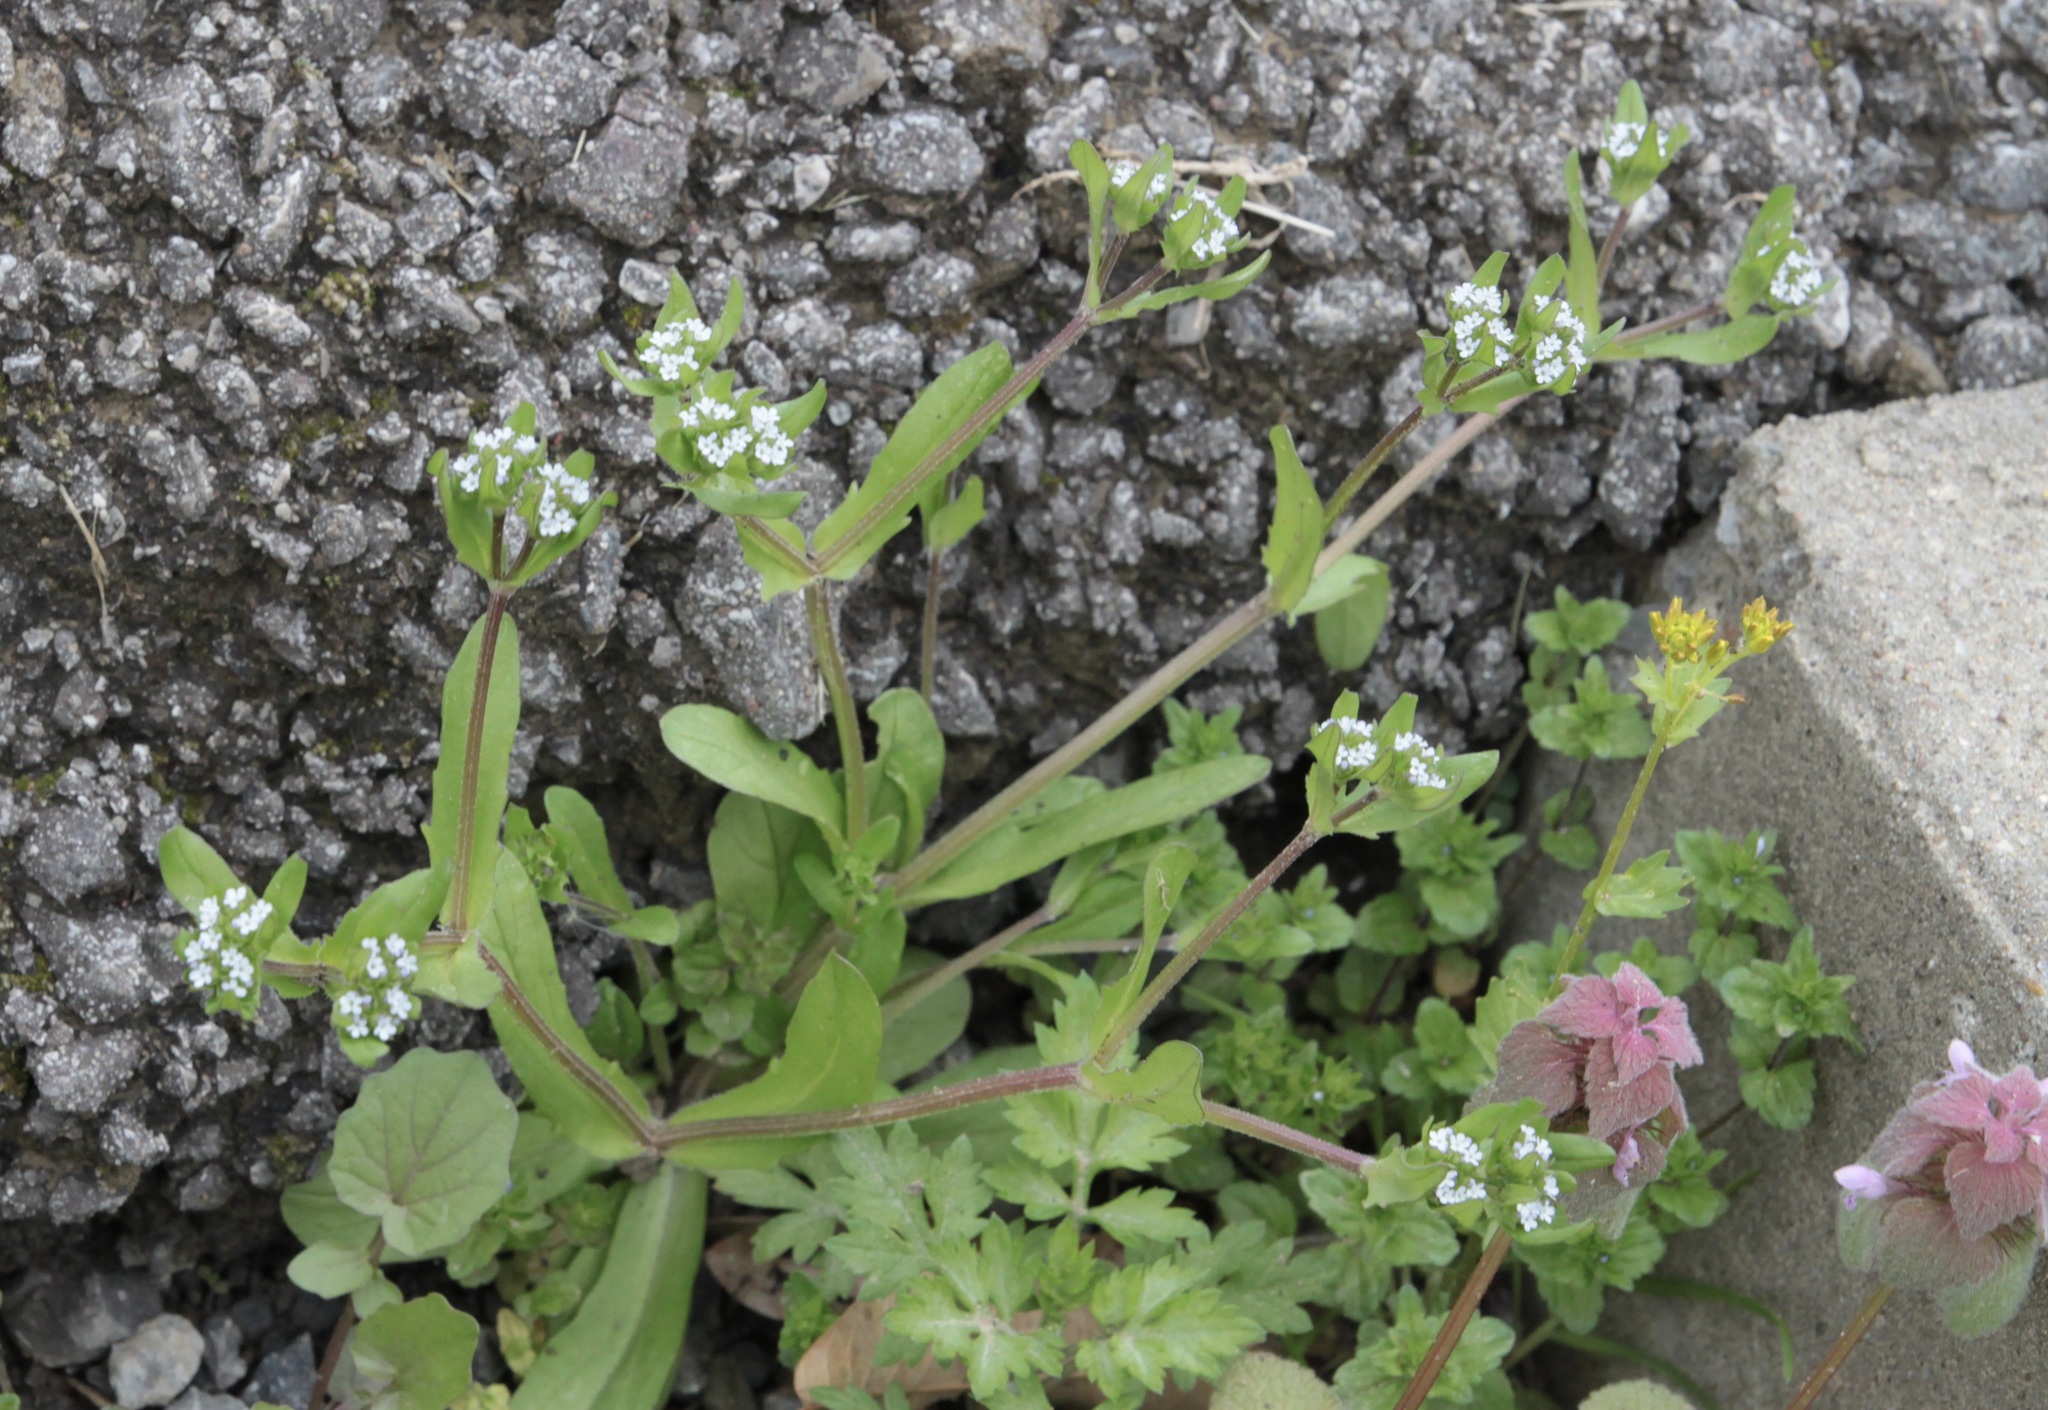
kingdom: Plantae
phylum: Tracheophyta
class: Magnoliopsida
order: Dipsacales
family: Caprifoliaceae
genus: Valerianella
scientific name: Valerianella locusta
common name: Common cornsalad
